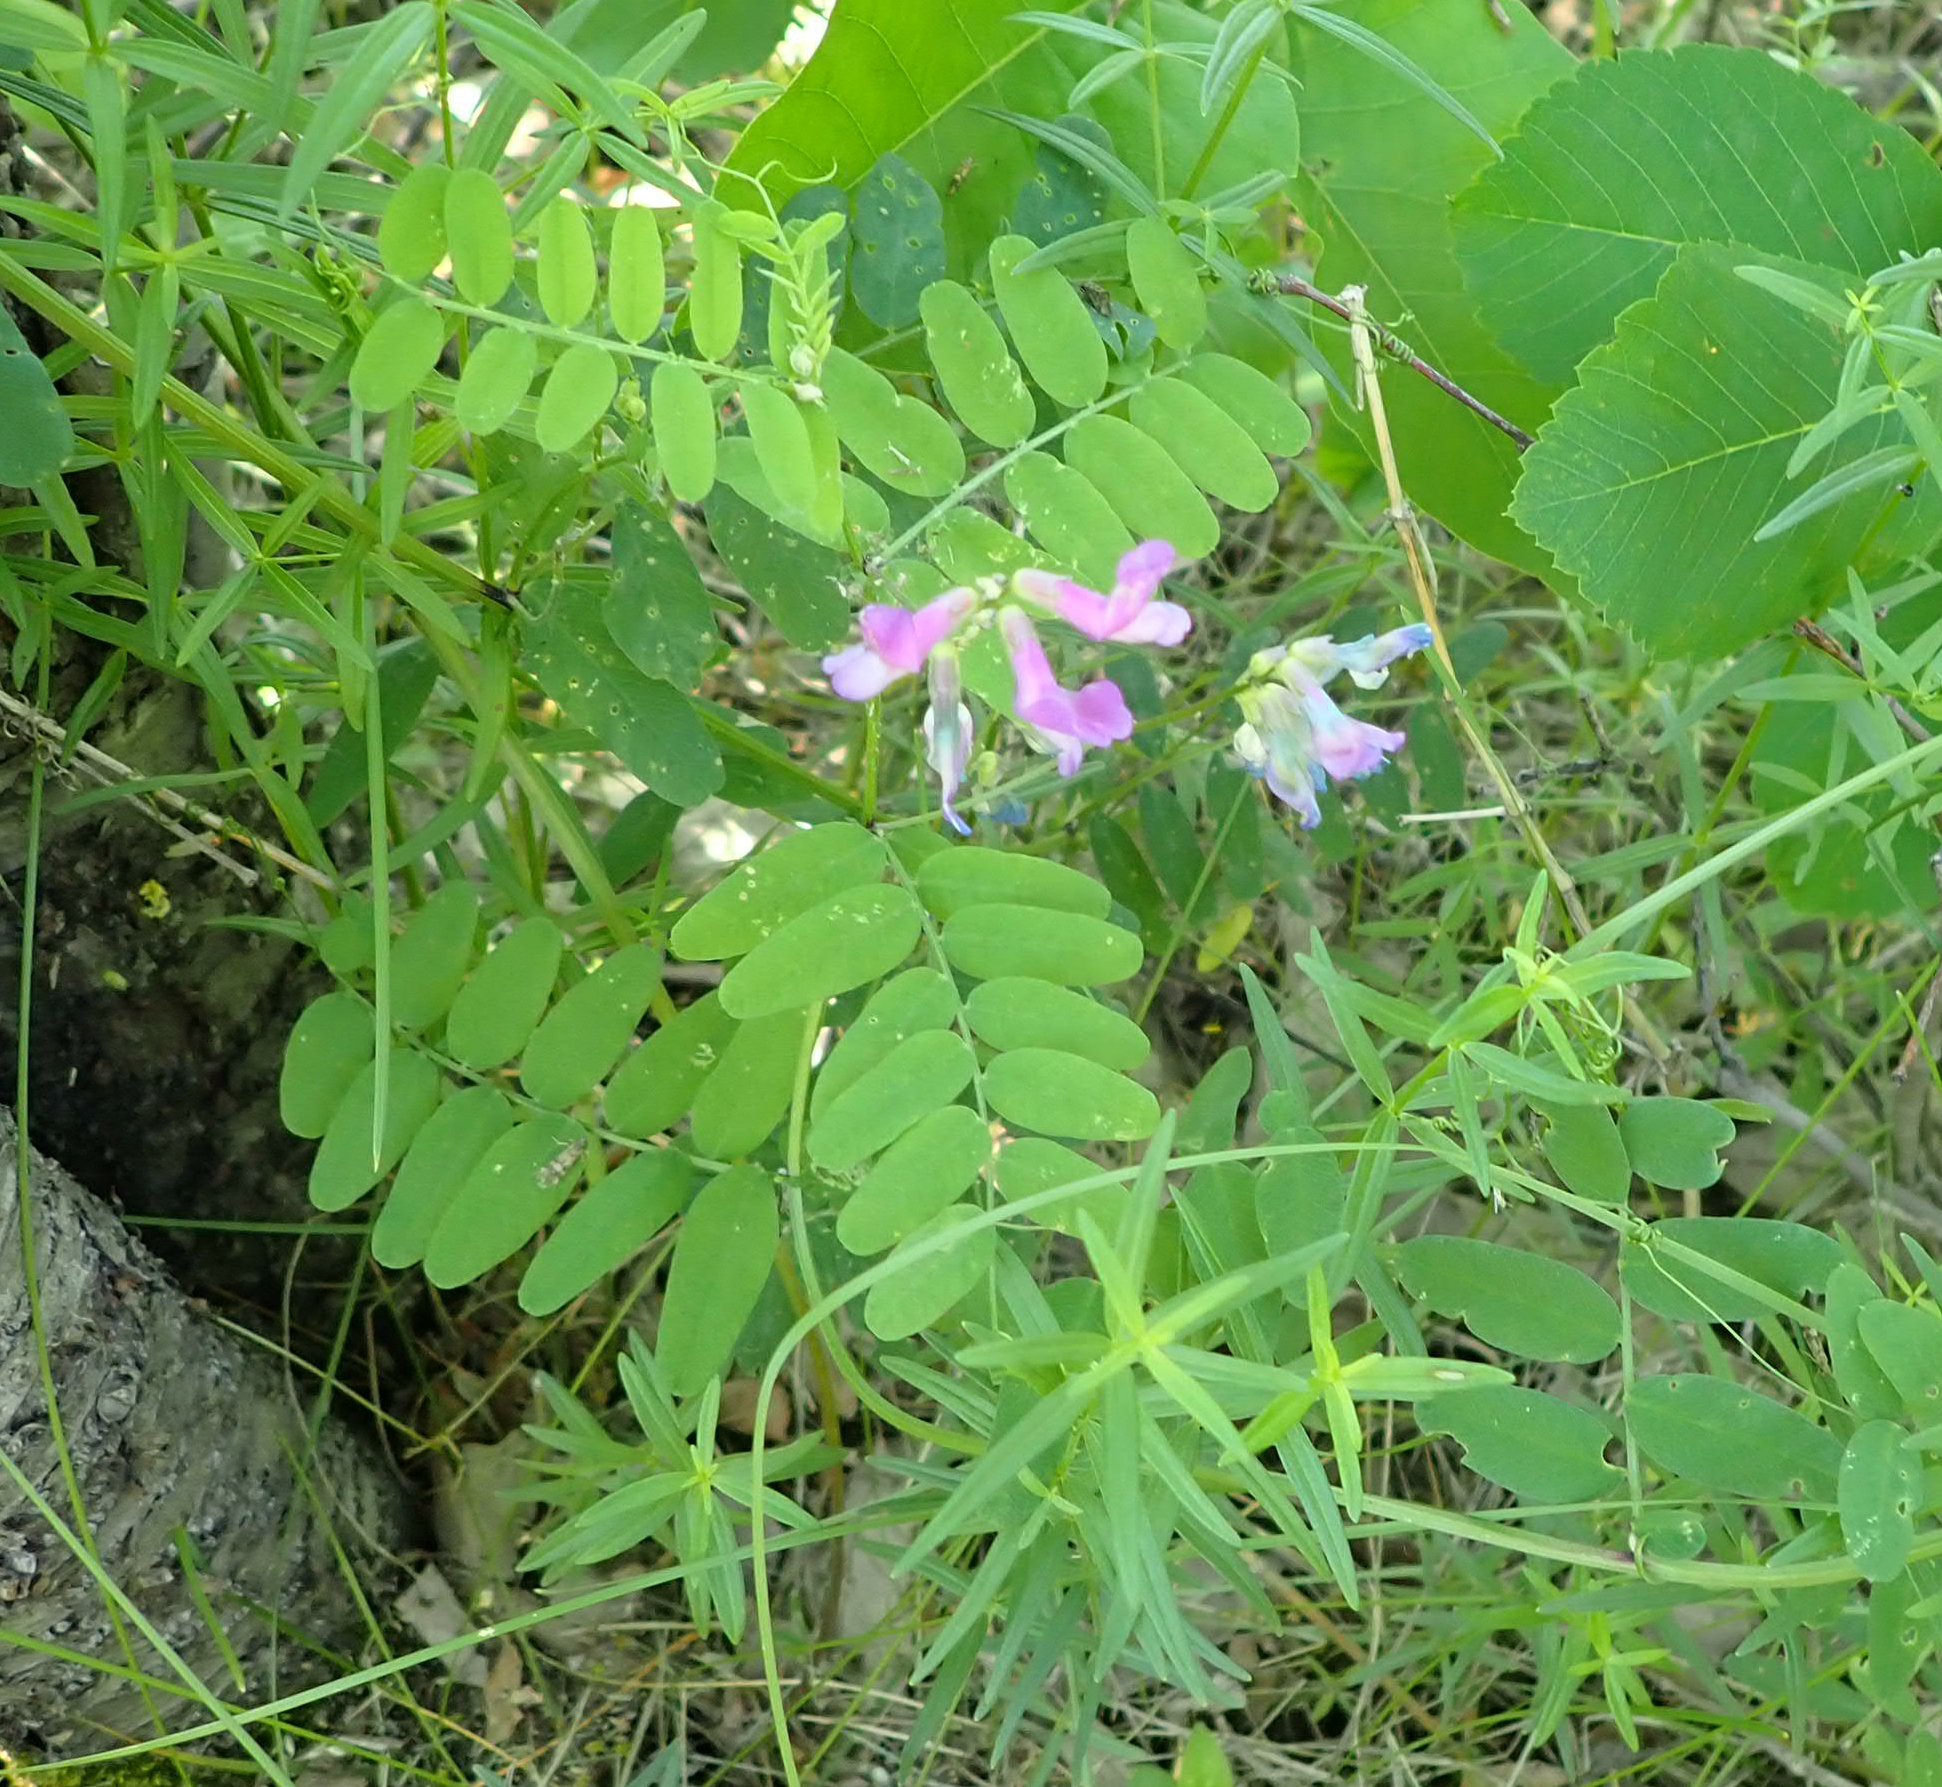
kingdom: Plantae
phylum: Tracheophyta
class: Magnoliopsida
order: Fabales
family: Fabaceae
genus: Vicia
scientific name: Vicia americana
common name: American vetch
